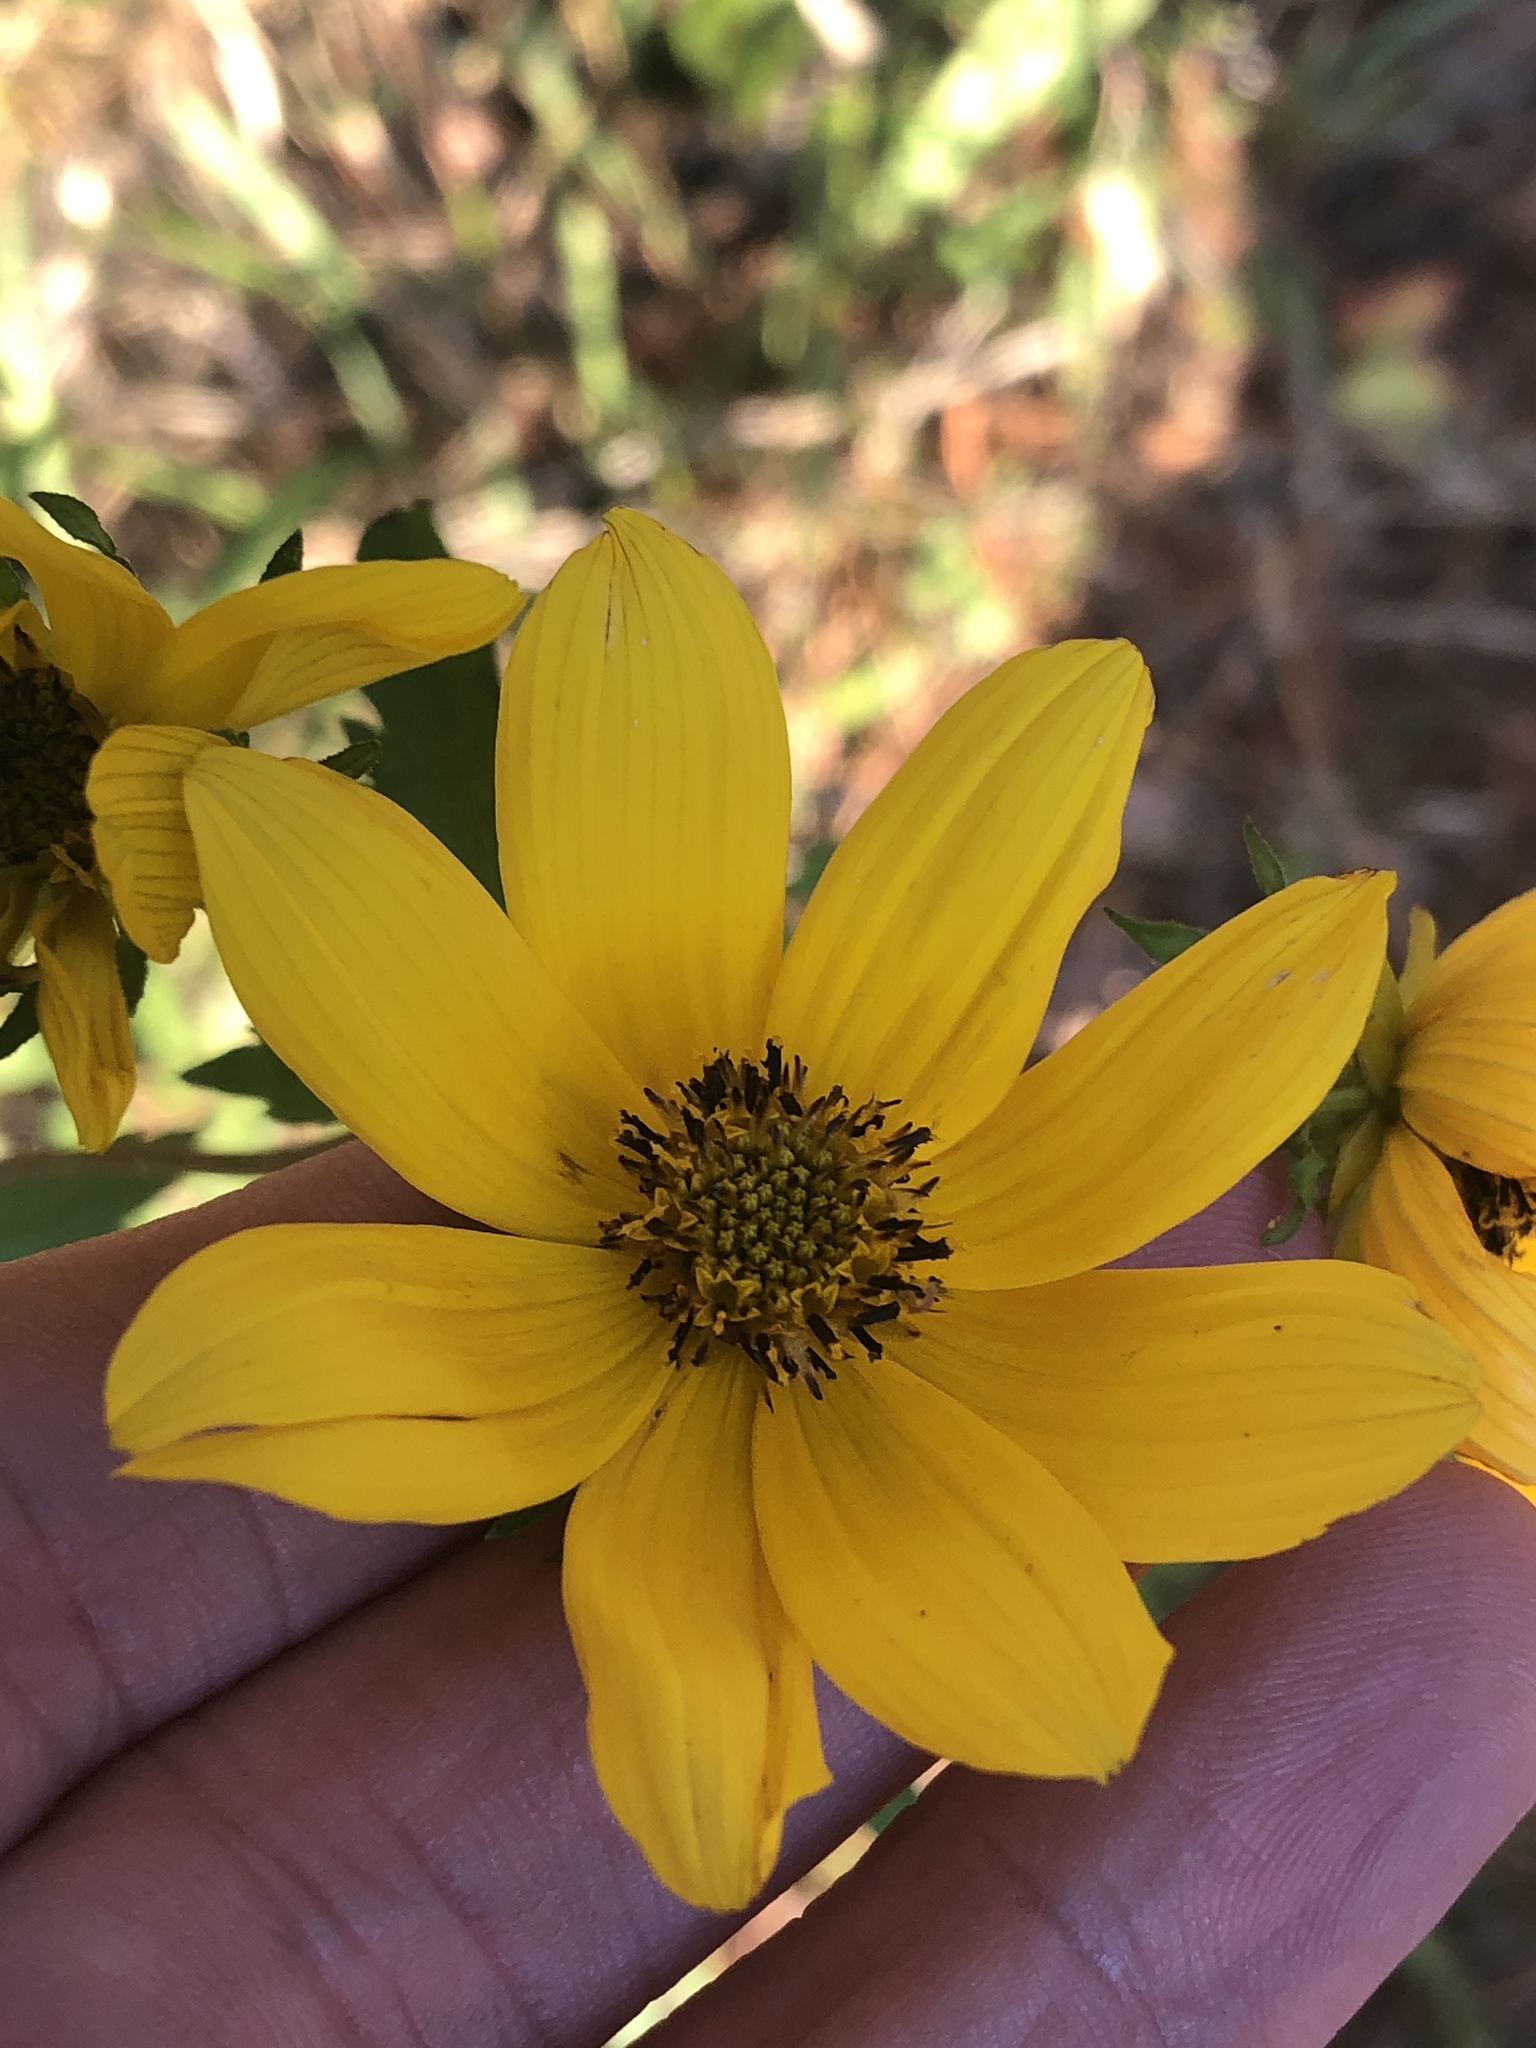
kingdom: Plantae
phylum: Tracheophyta
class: Magnoliopsida
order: Asterales
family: Asteraceae
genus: Bidens
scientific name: Bidens aristosa
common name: Western tickseed
